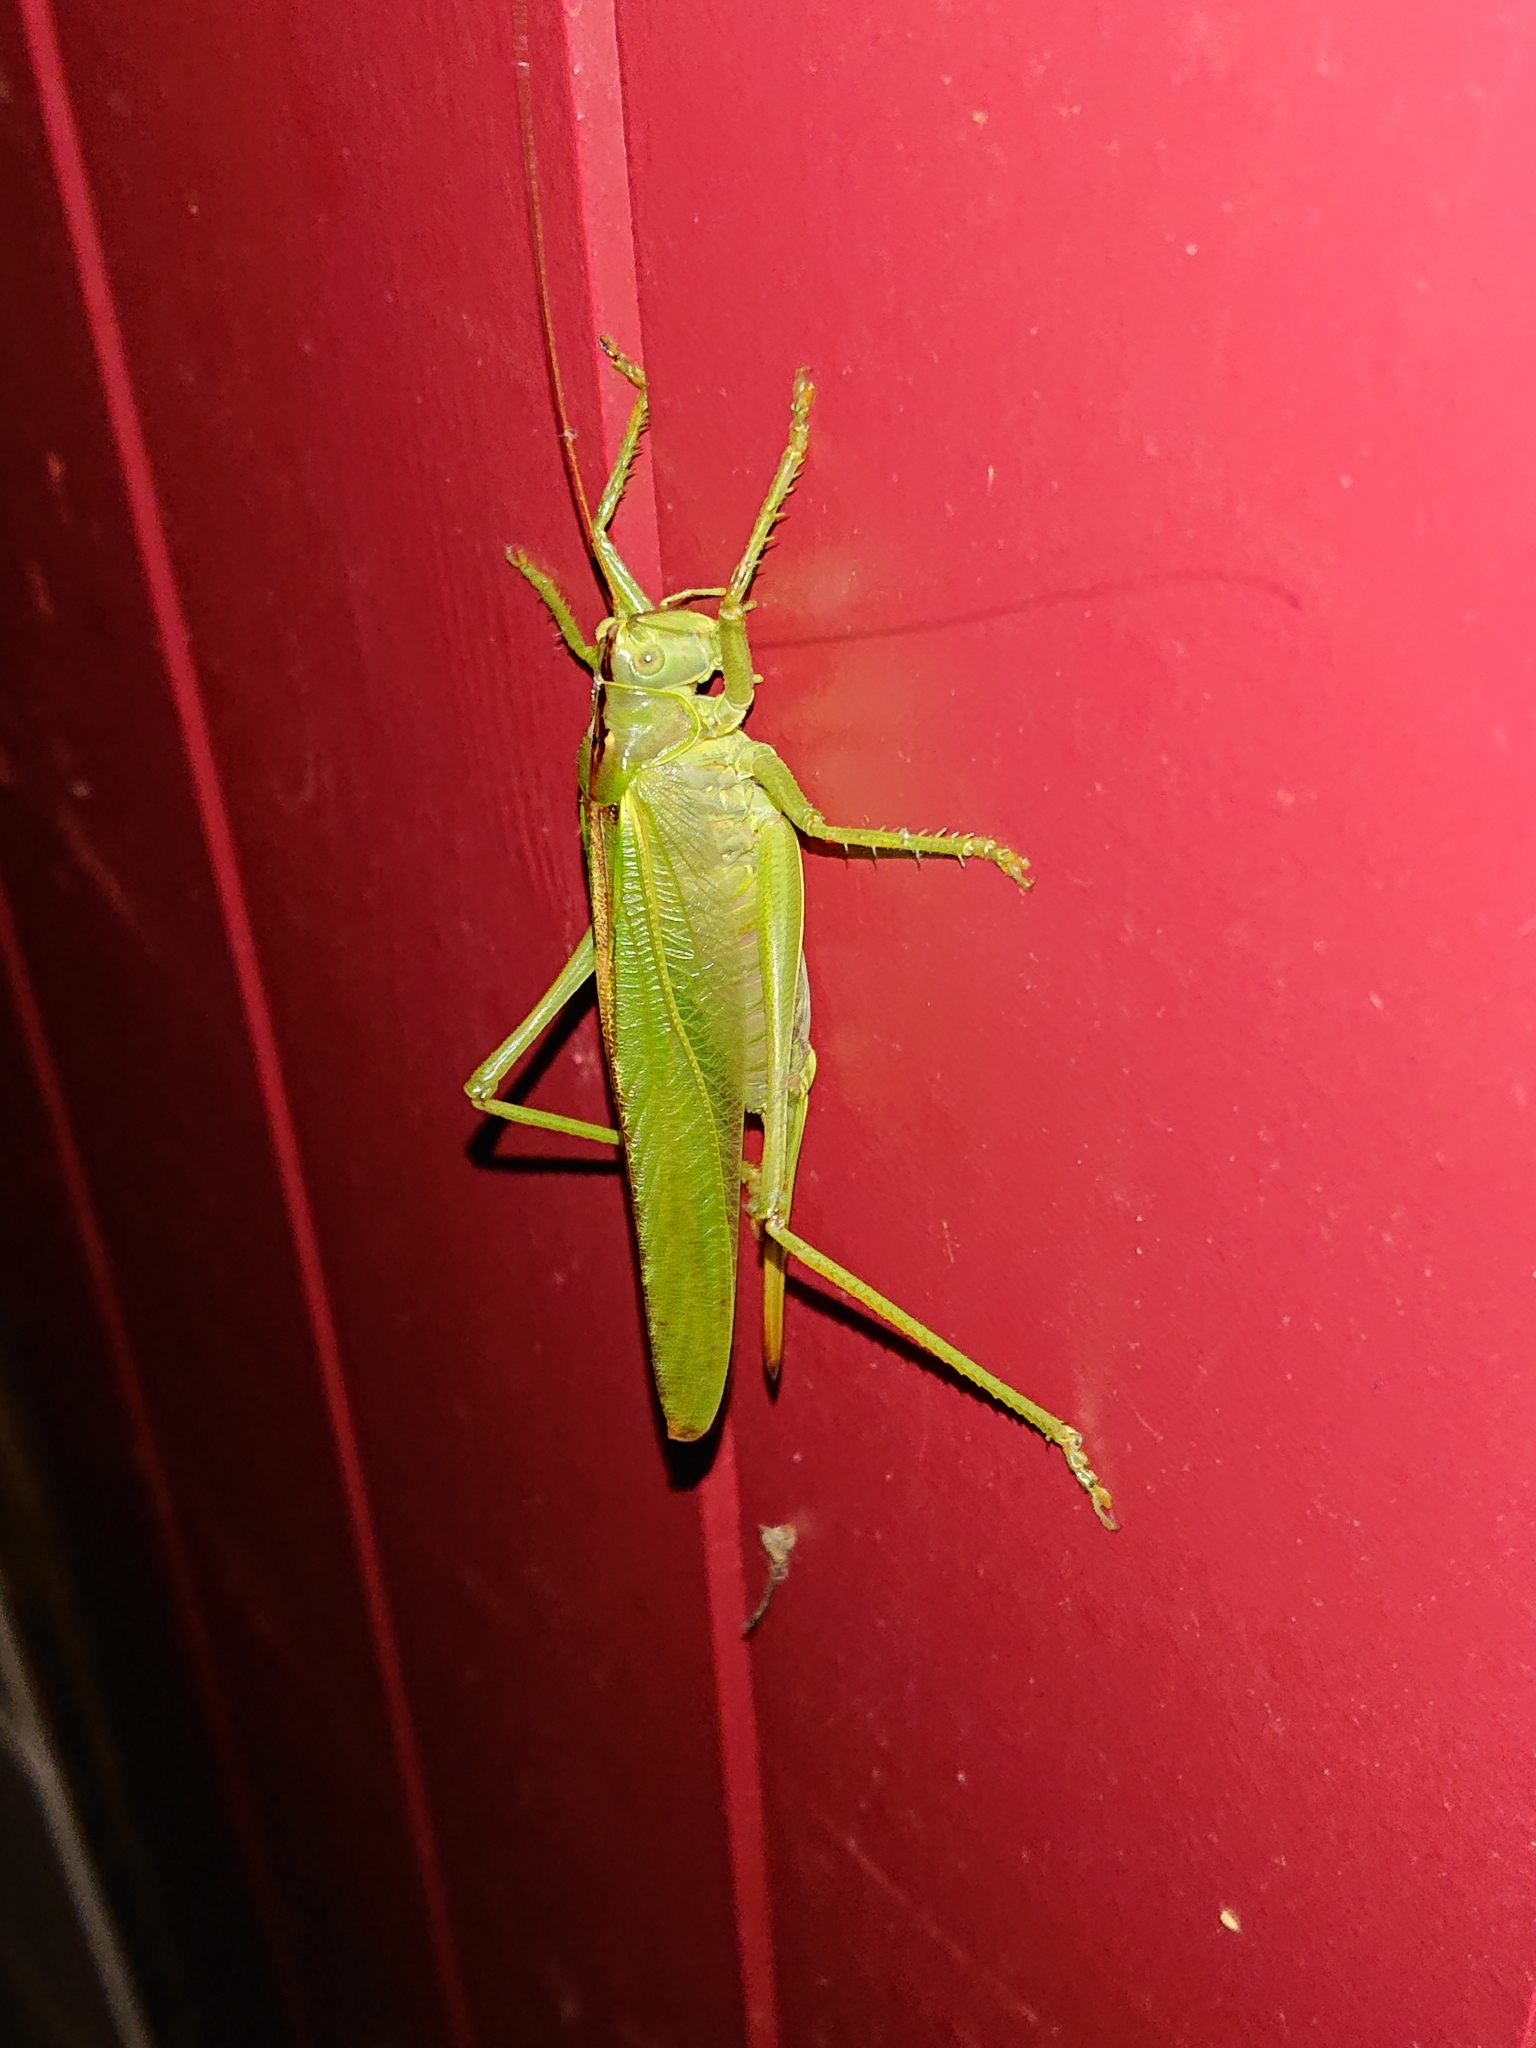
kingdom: Animalia
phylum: Arthropoda
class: Insecta
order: Orthoptera
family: Tettigoniidae
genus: Tettigonia
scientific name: Tettigonia viridissima
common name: Great green bush-cricket
